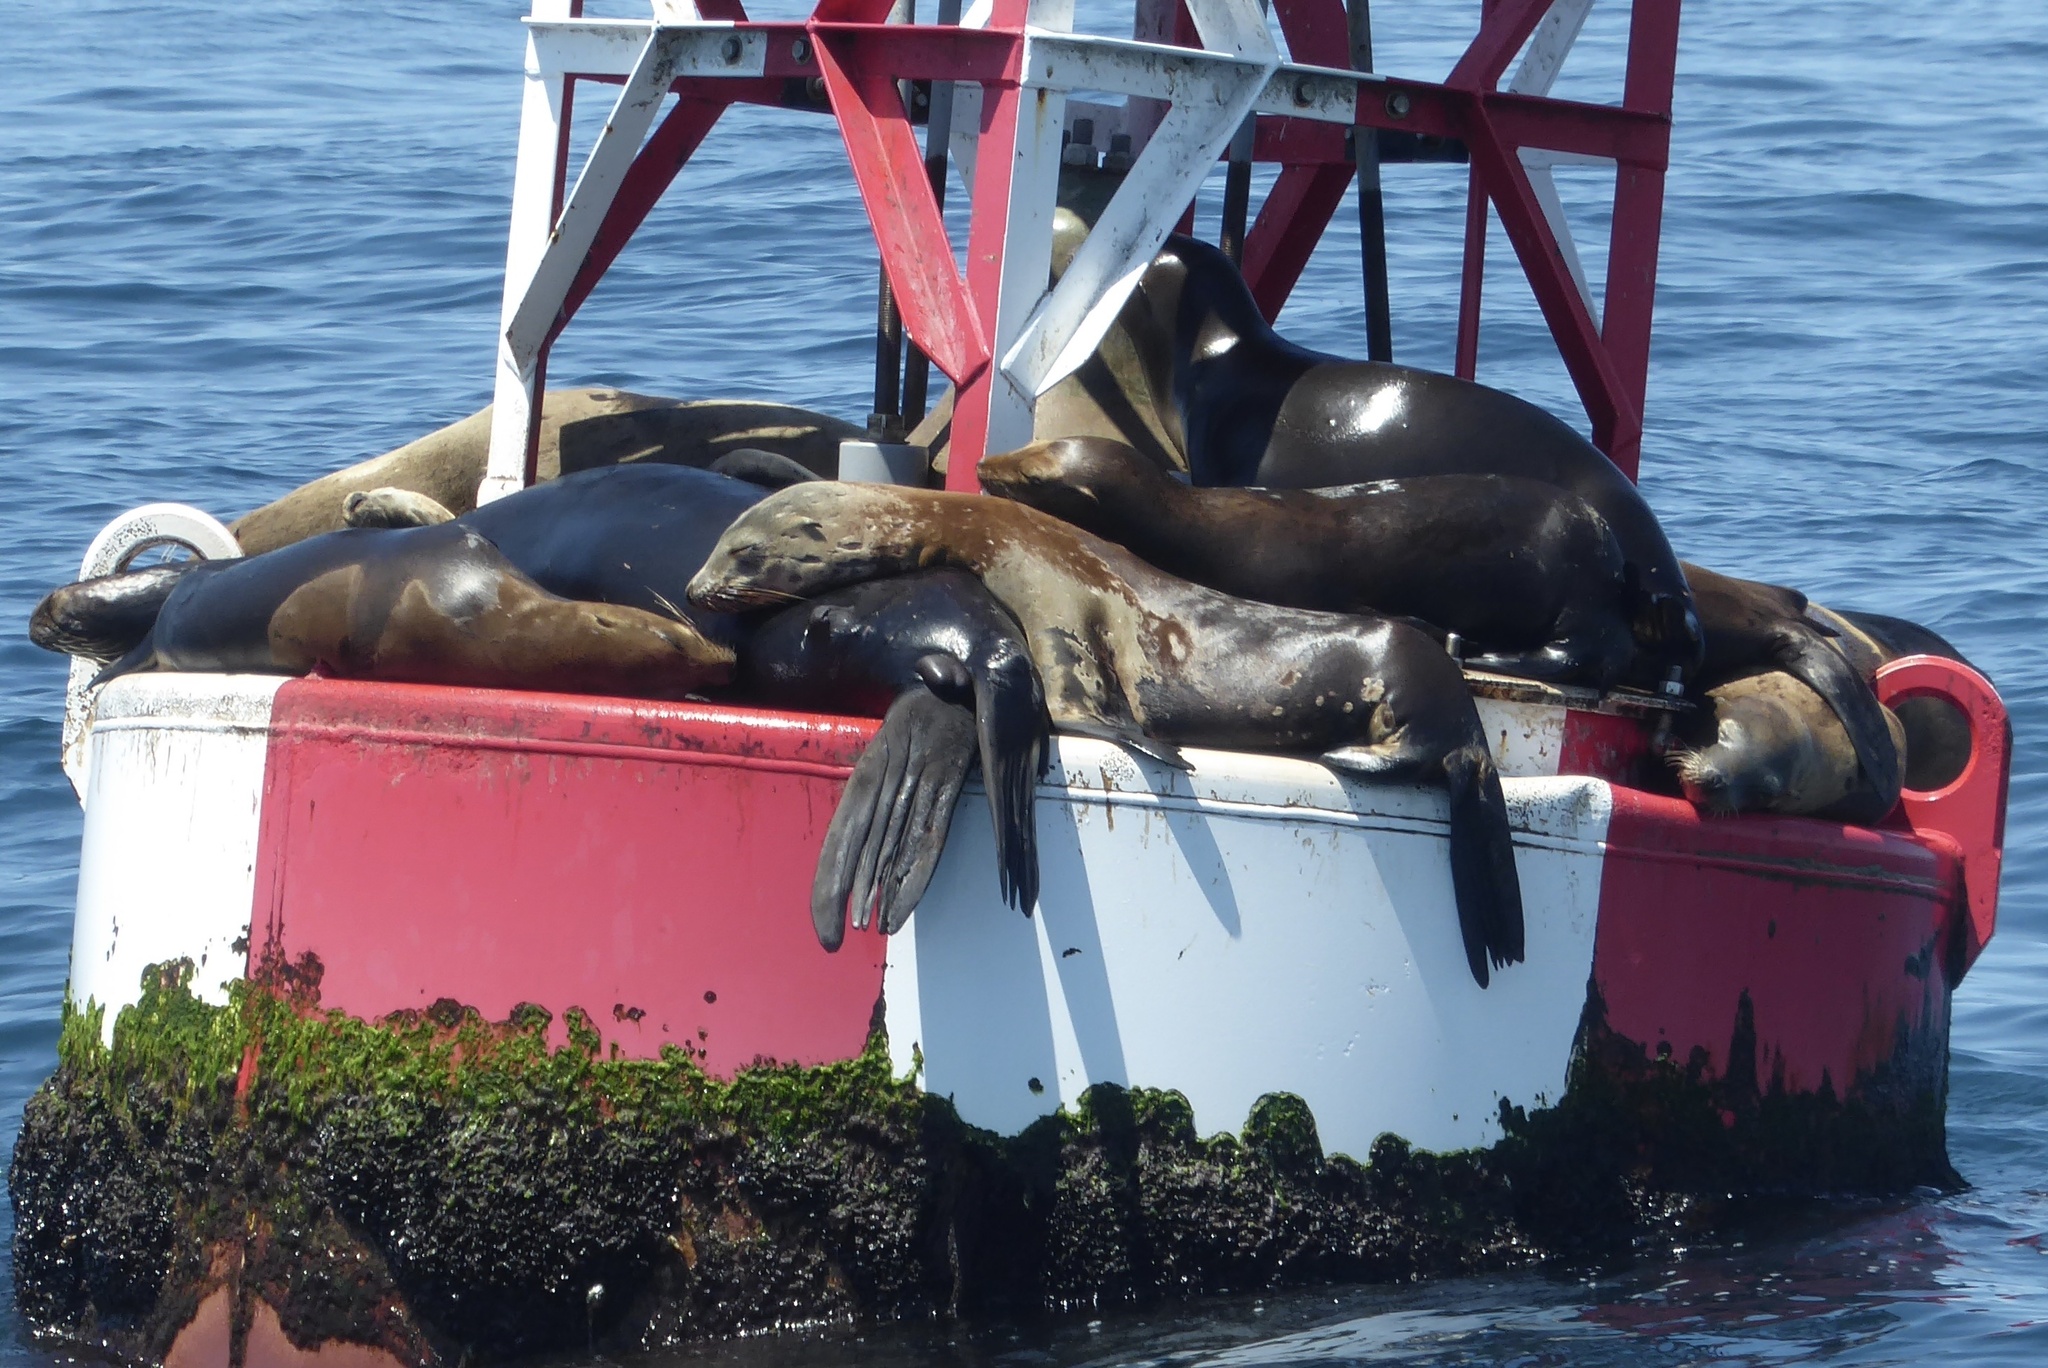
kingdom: Animalia
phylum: Chordata
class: Mammalia
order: Carnivora
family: Otariidae
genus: Zalophus
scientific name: Zalophus californianus
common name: California sea lion
